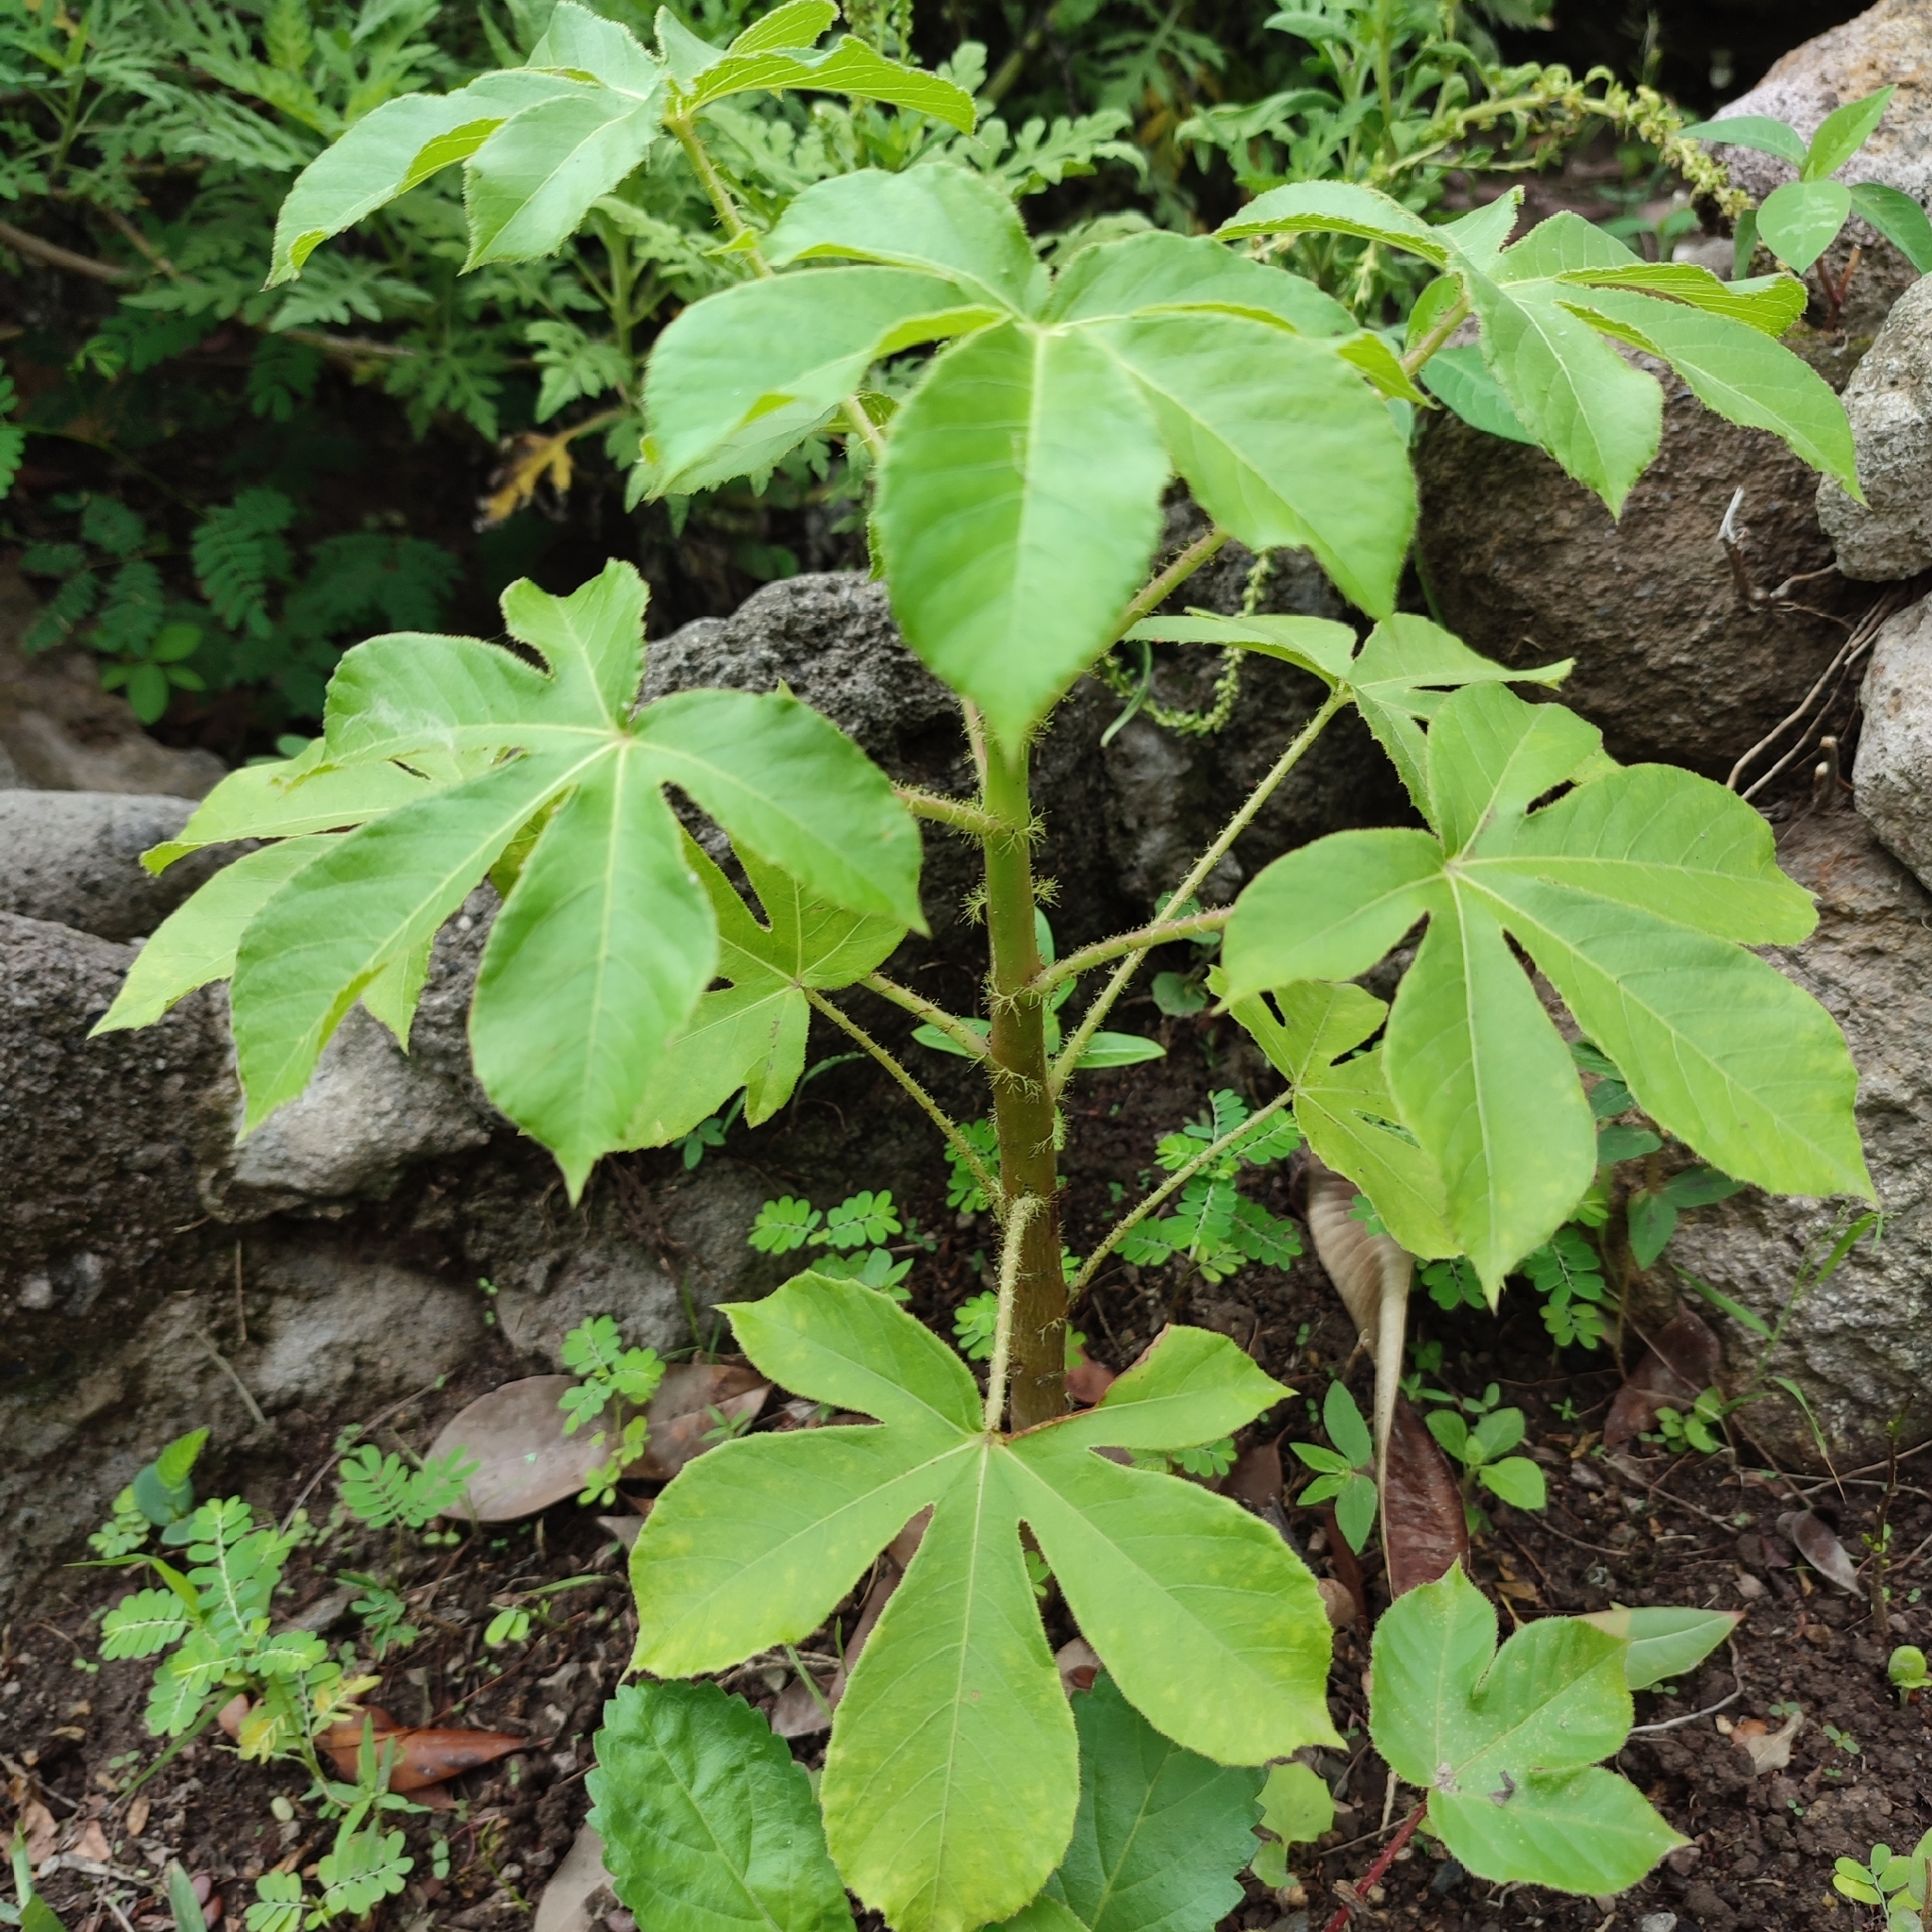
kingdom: Plantae
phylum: Tracheophyta
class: Magnoliopsida
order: Malpighiales
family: Euphorbiaceae
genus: Jatropha
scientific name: Jatropha gossypiifolia
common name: Bellyache bush
